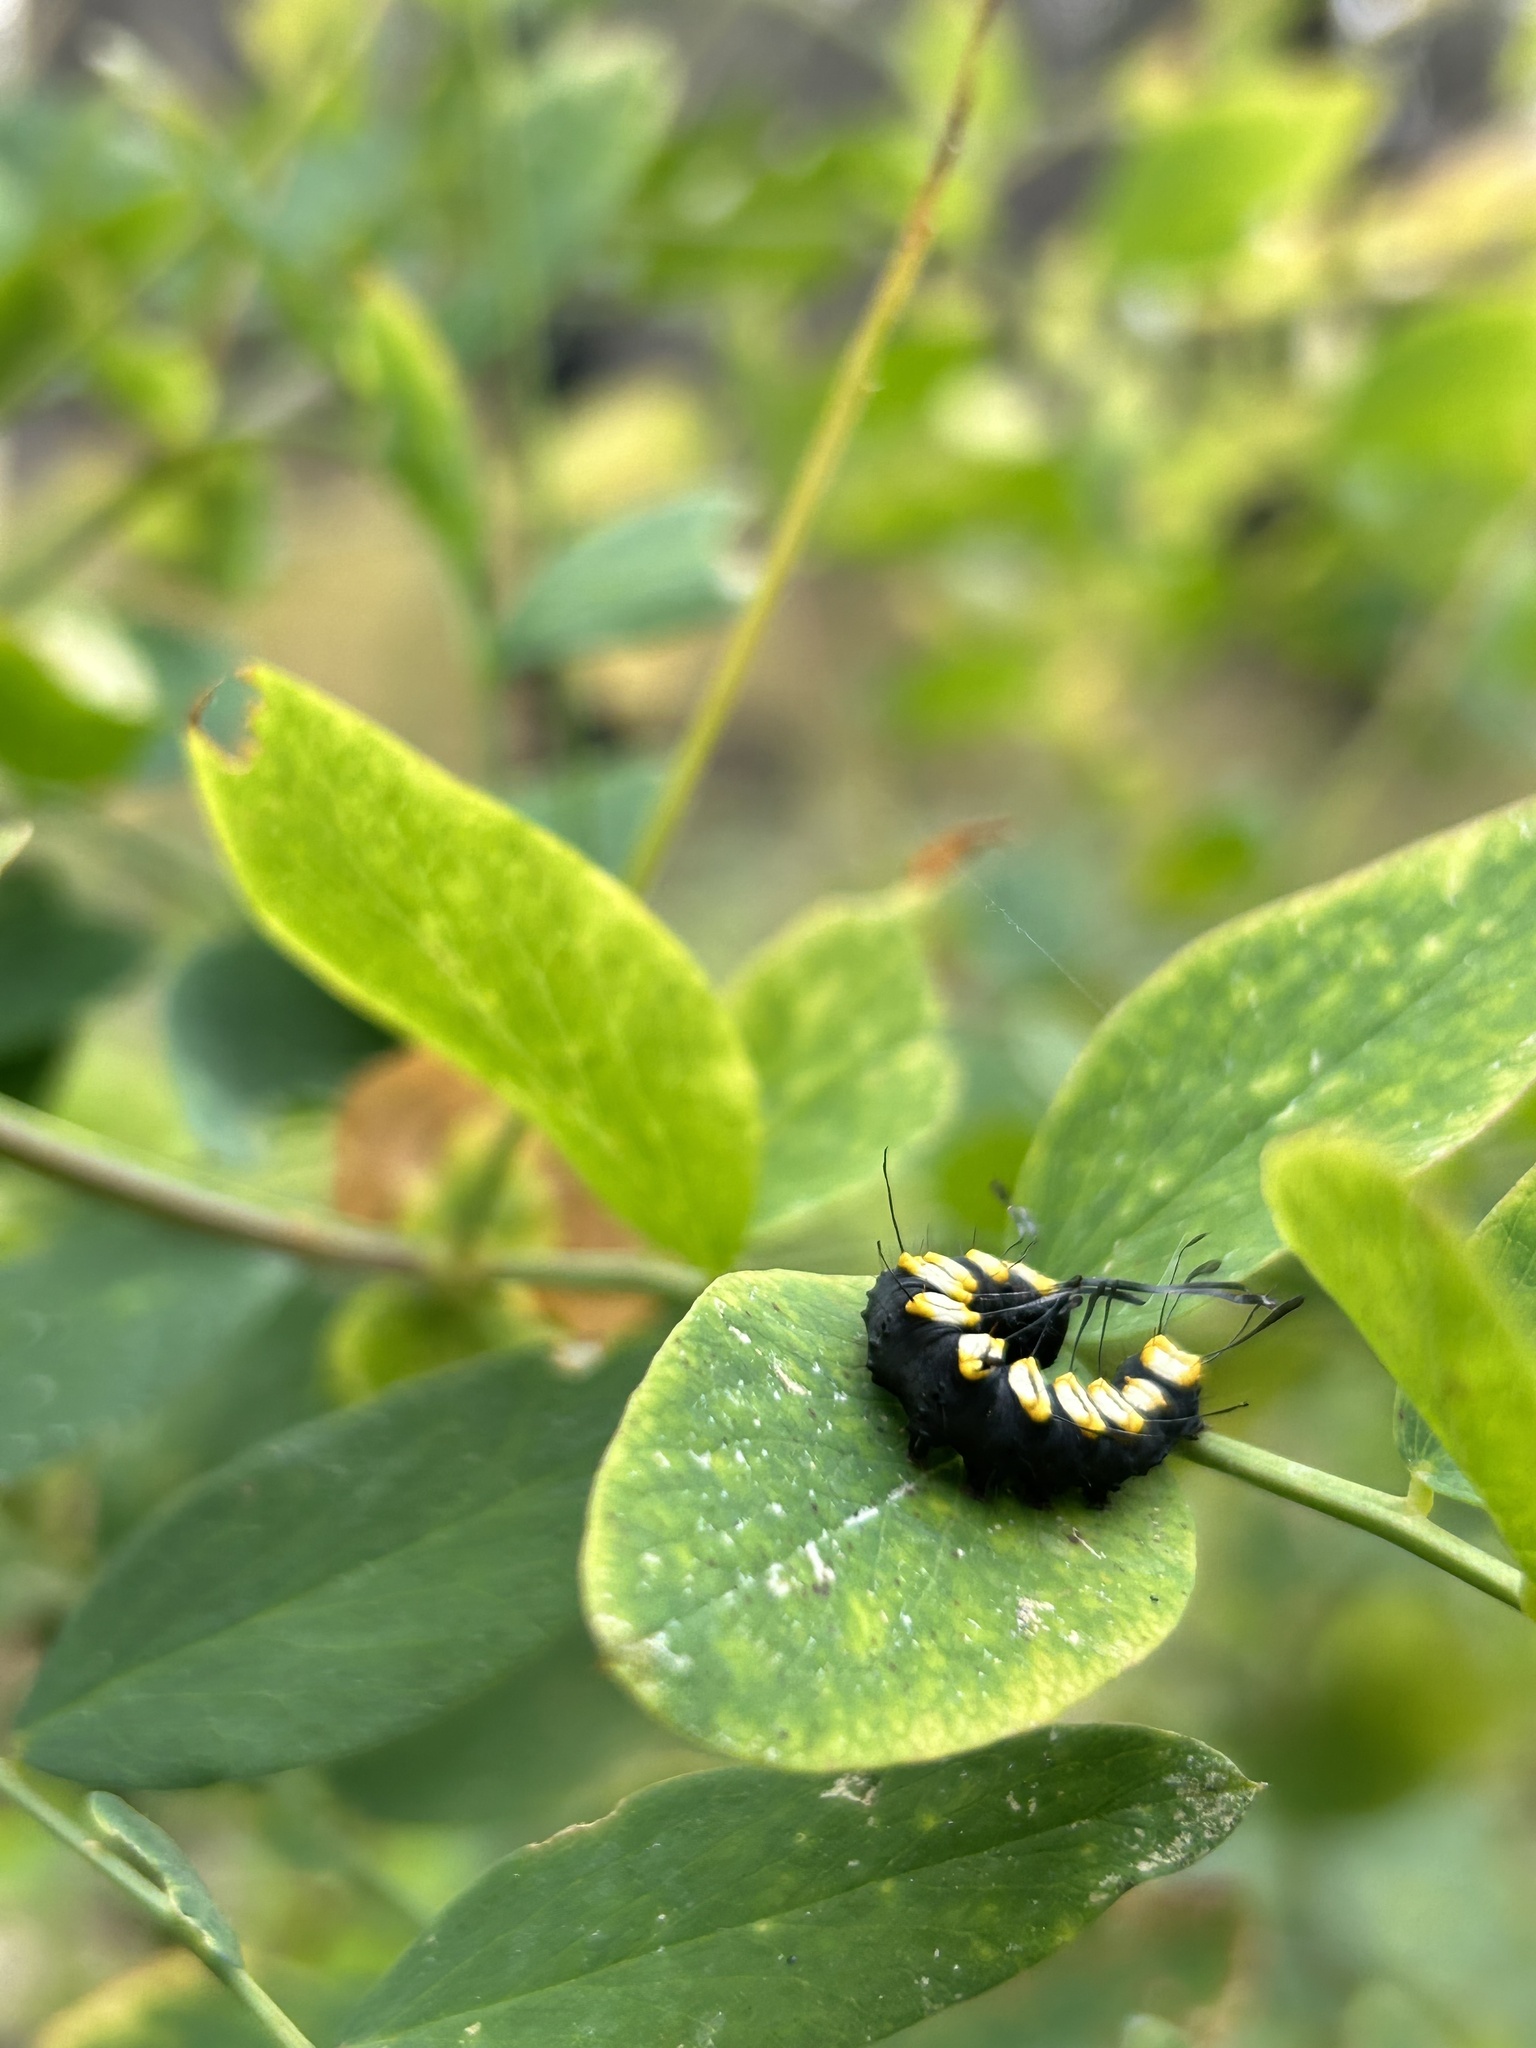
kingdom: Animalia
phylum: Arthropoda
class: Insecta
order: Lepidoptera
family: Noctuidae
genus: Acronicta
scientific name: Acronicta funeralis
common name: Funerary dagger
